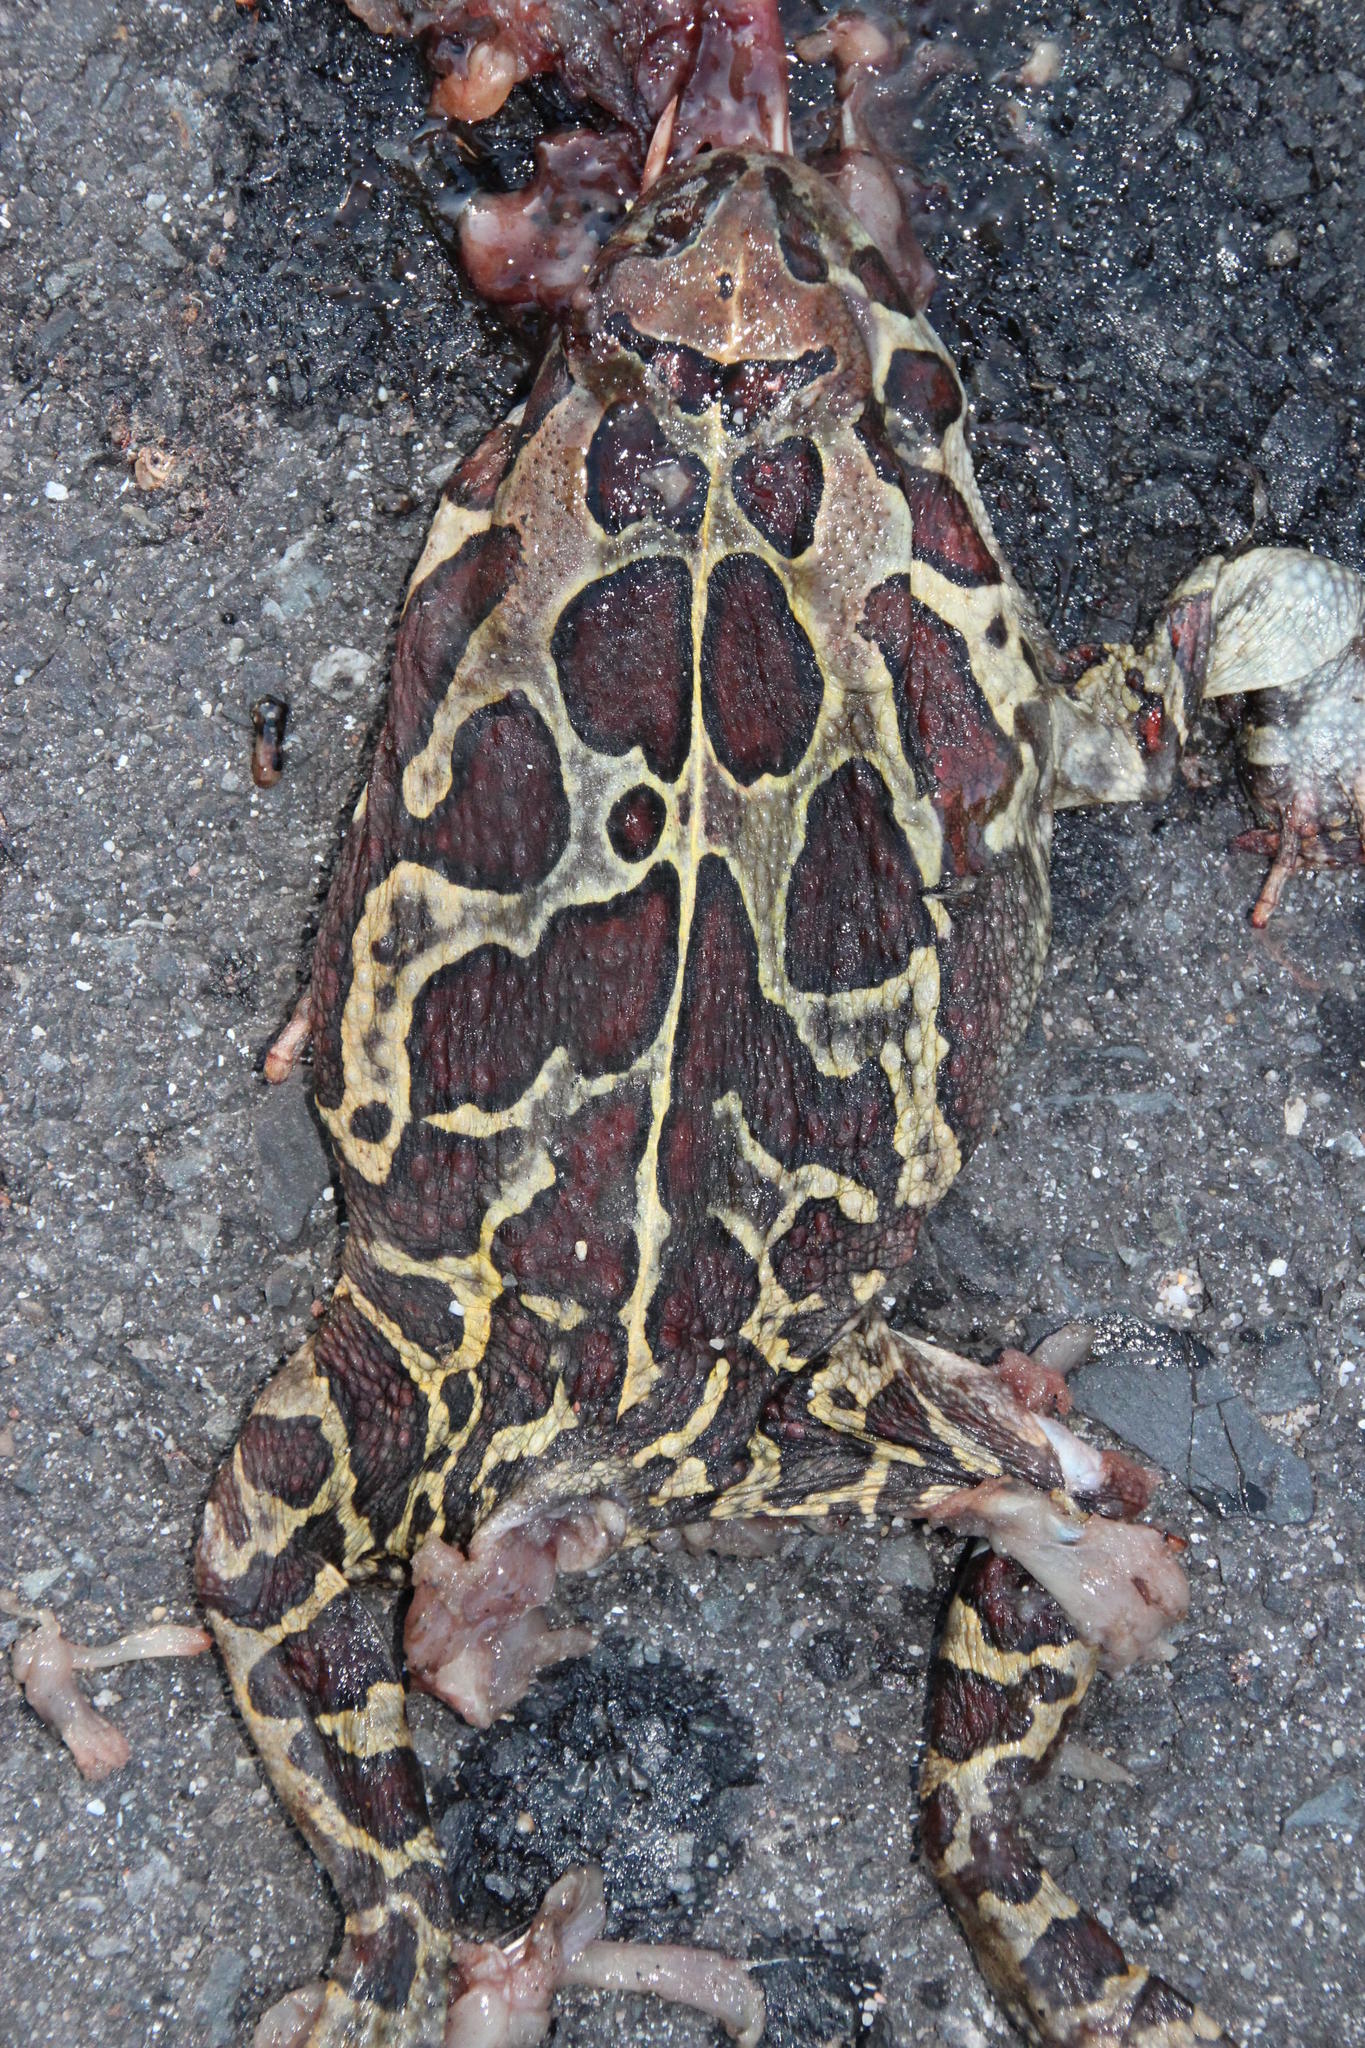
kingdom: Animalia
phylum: Chordata
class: Amphibia
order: Anura
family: Bufonidae
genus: Sclerophrys
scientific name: Sclerophrys pantherina
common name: Panther toad
